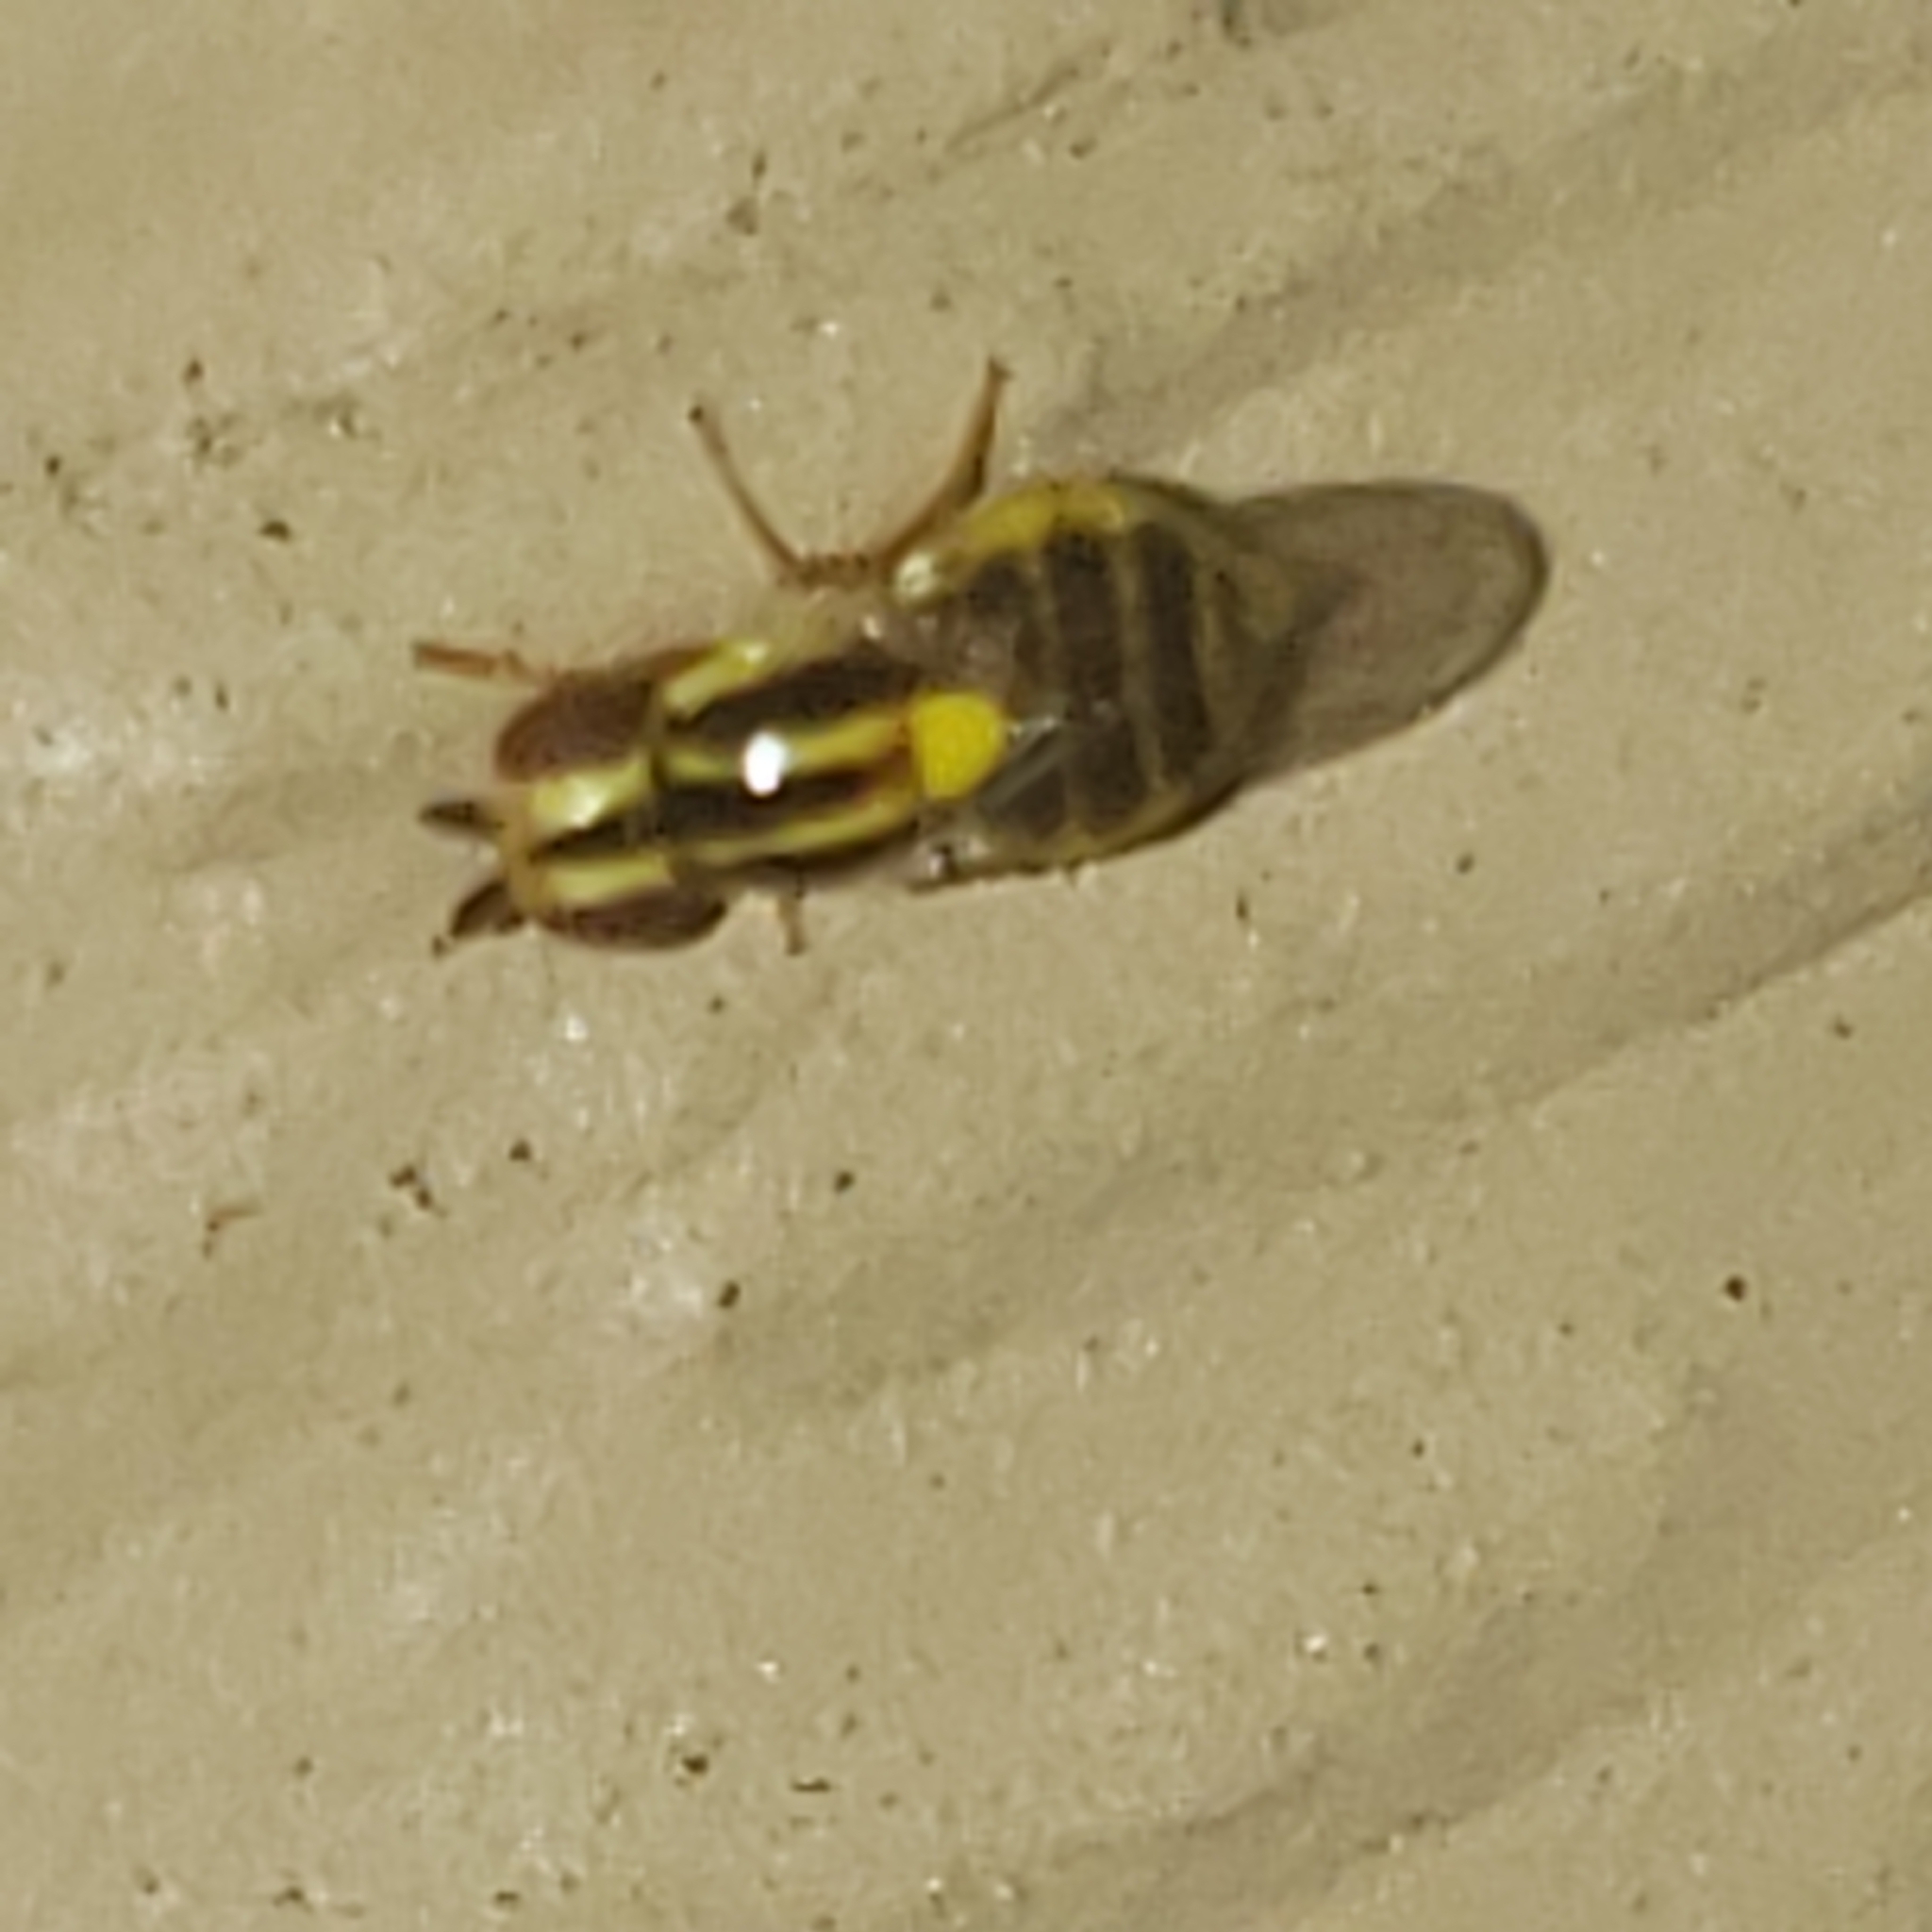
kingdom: Animalia
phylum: Arthropoda
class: Insecta
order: Diptera
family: Chloropidae
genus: Thaumatomyia
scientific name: Thaumatomyia glabra
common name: Chloropid fly
